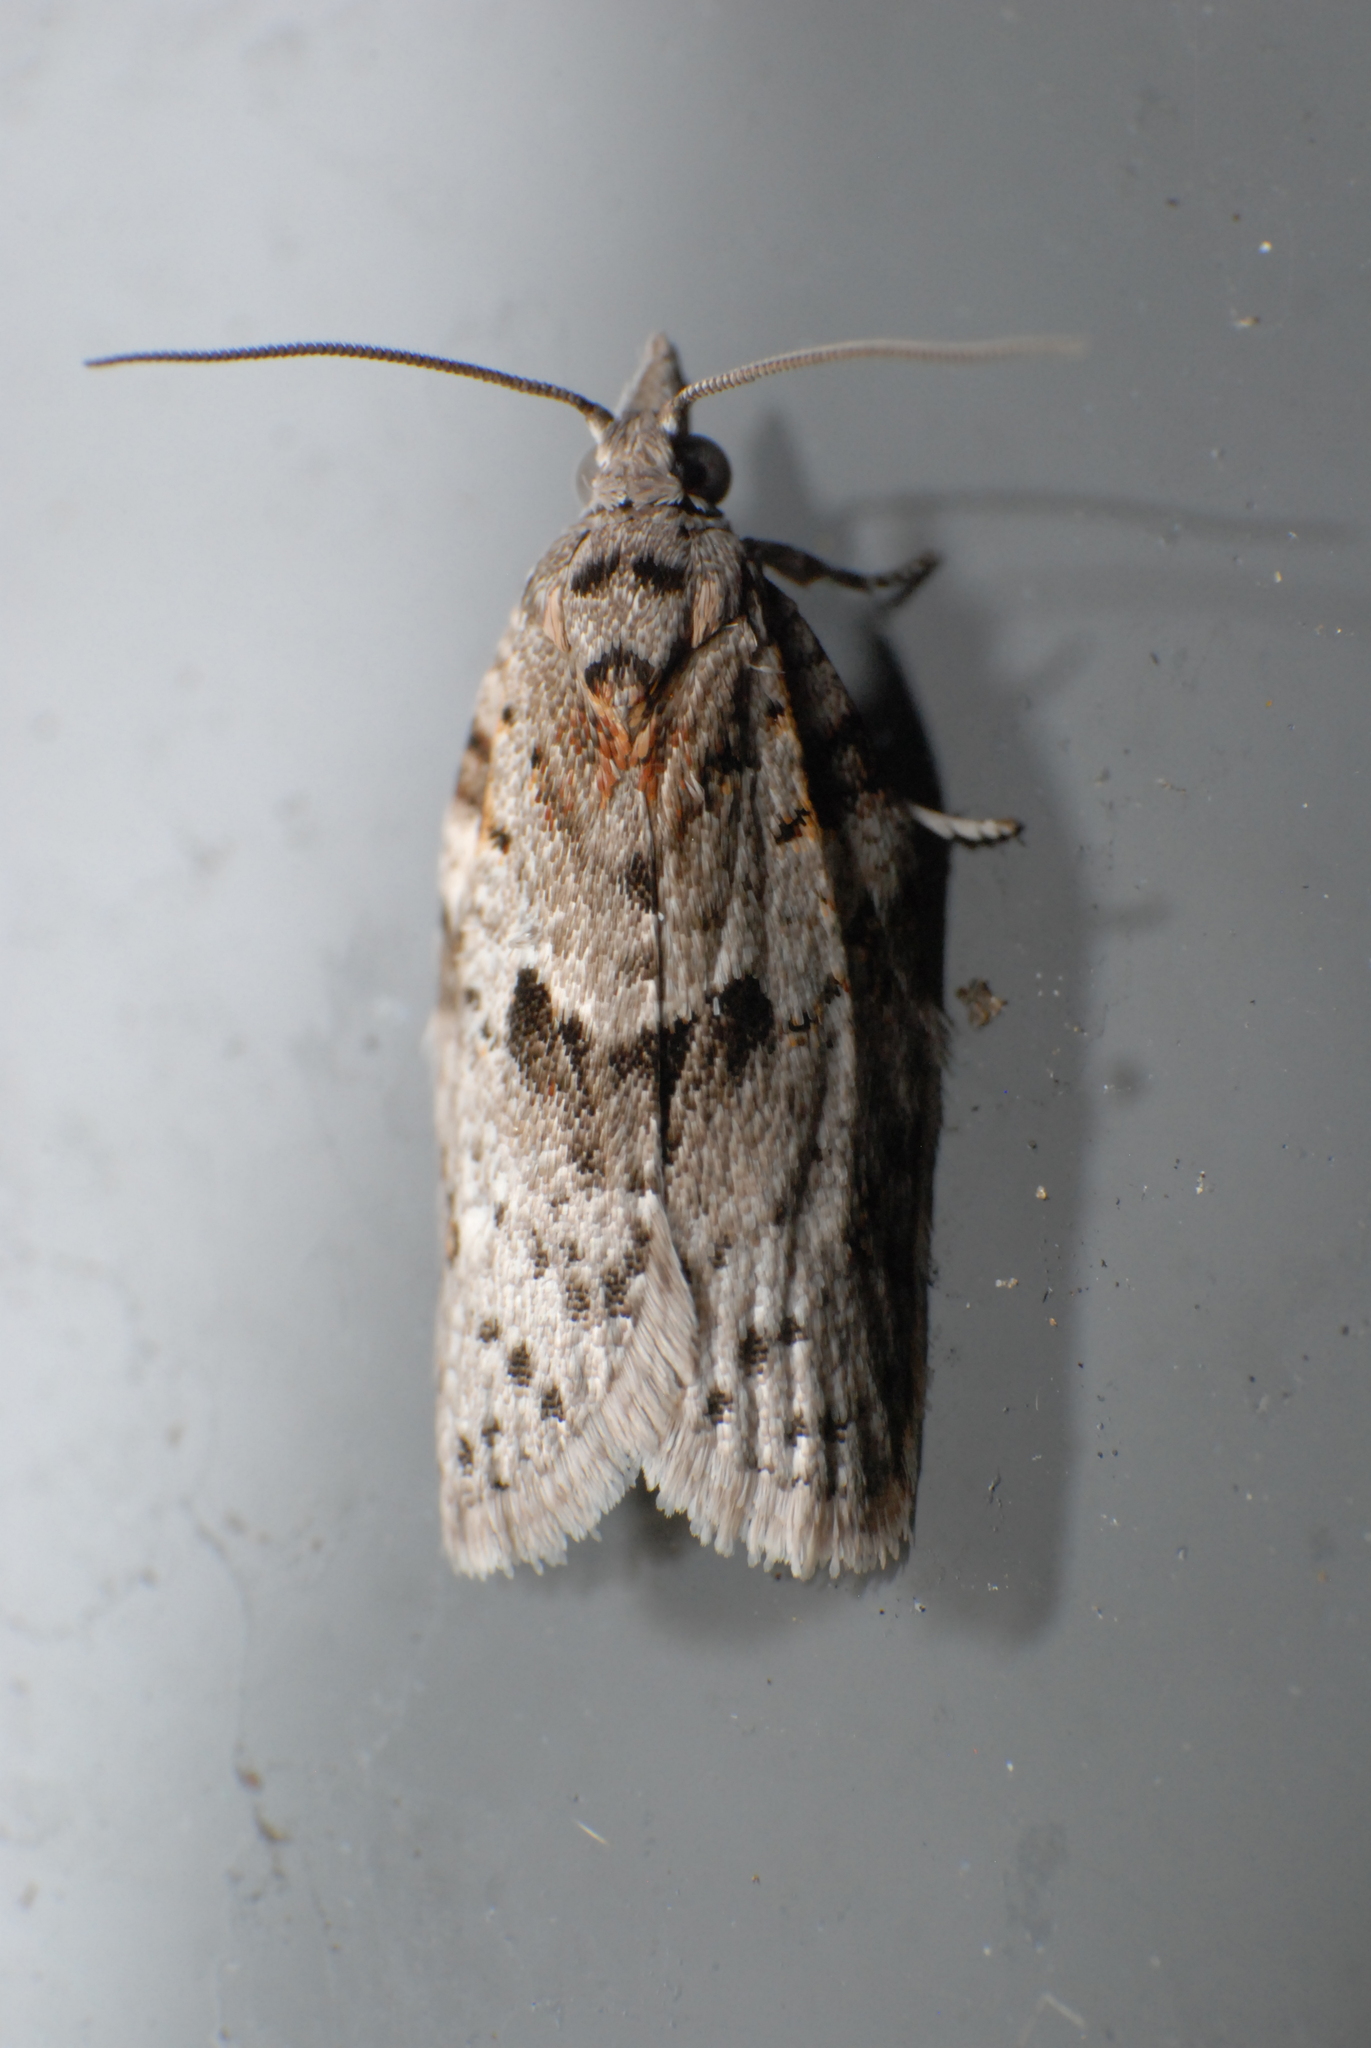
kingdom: Animalia
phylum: Arthropoda
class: Insecta
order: Lepidoptera
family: Tortricidae
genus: Isotenes
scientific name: Isotenes miserana
